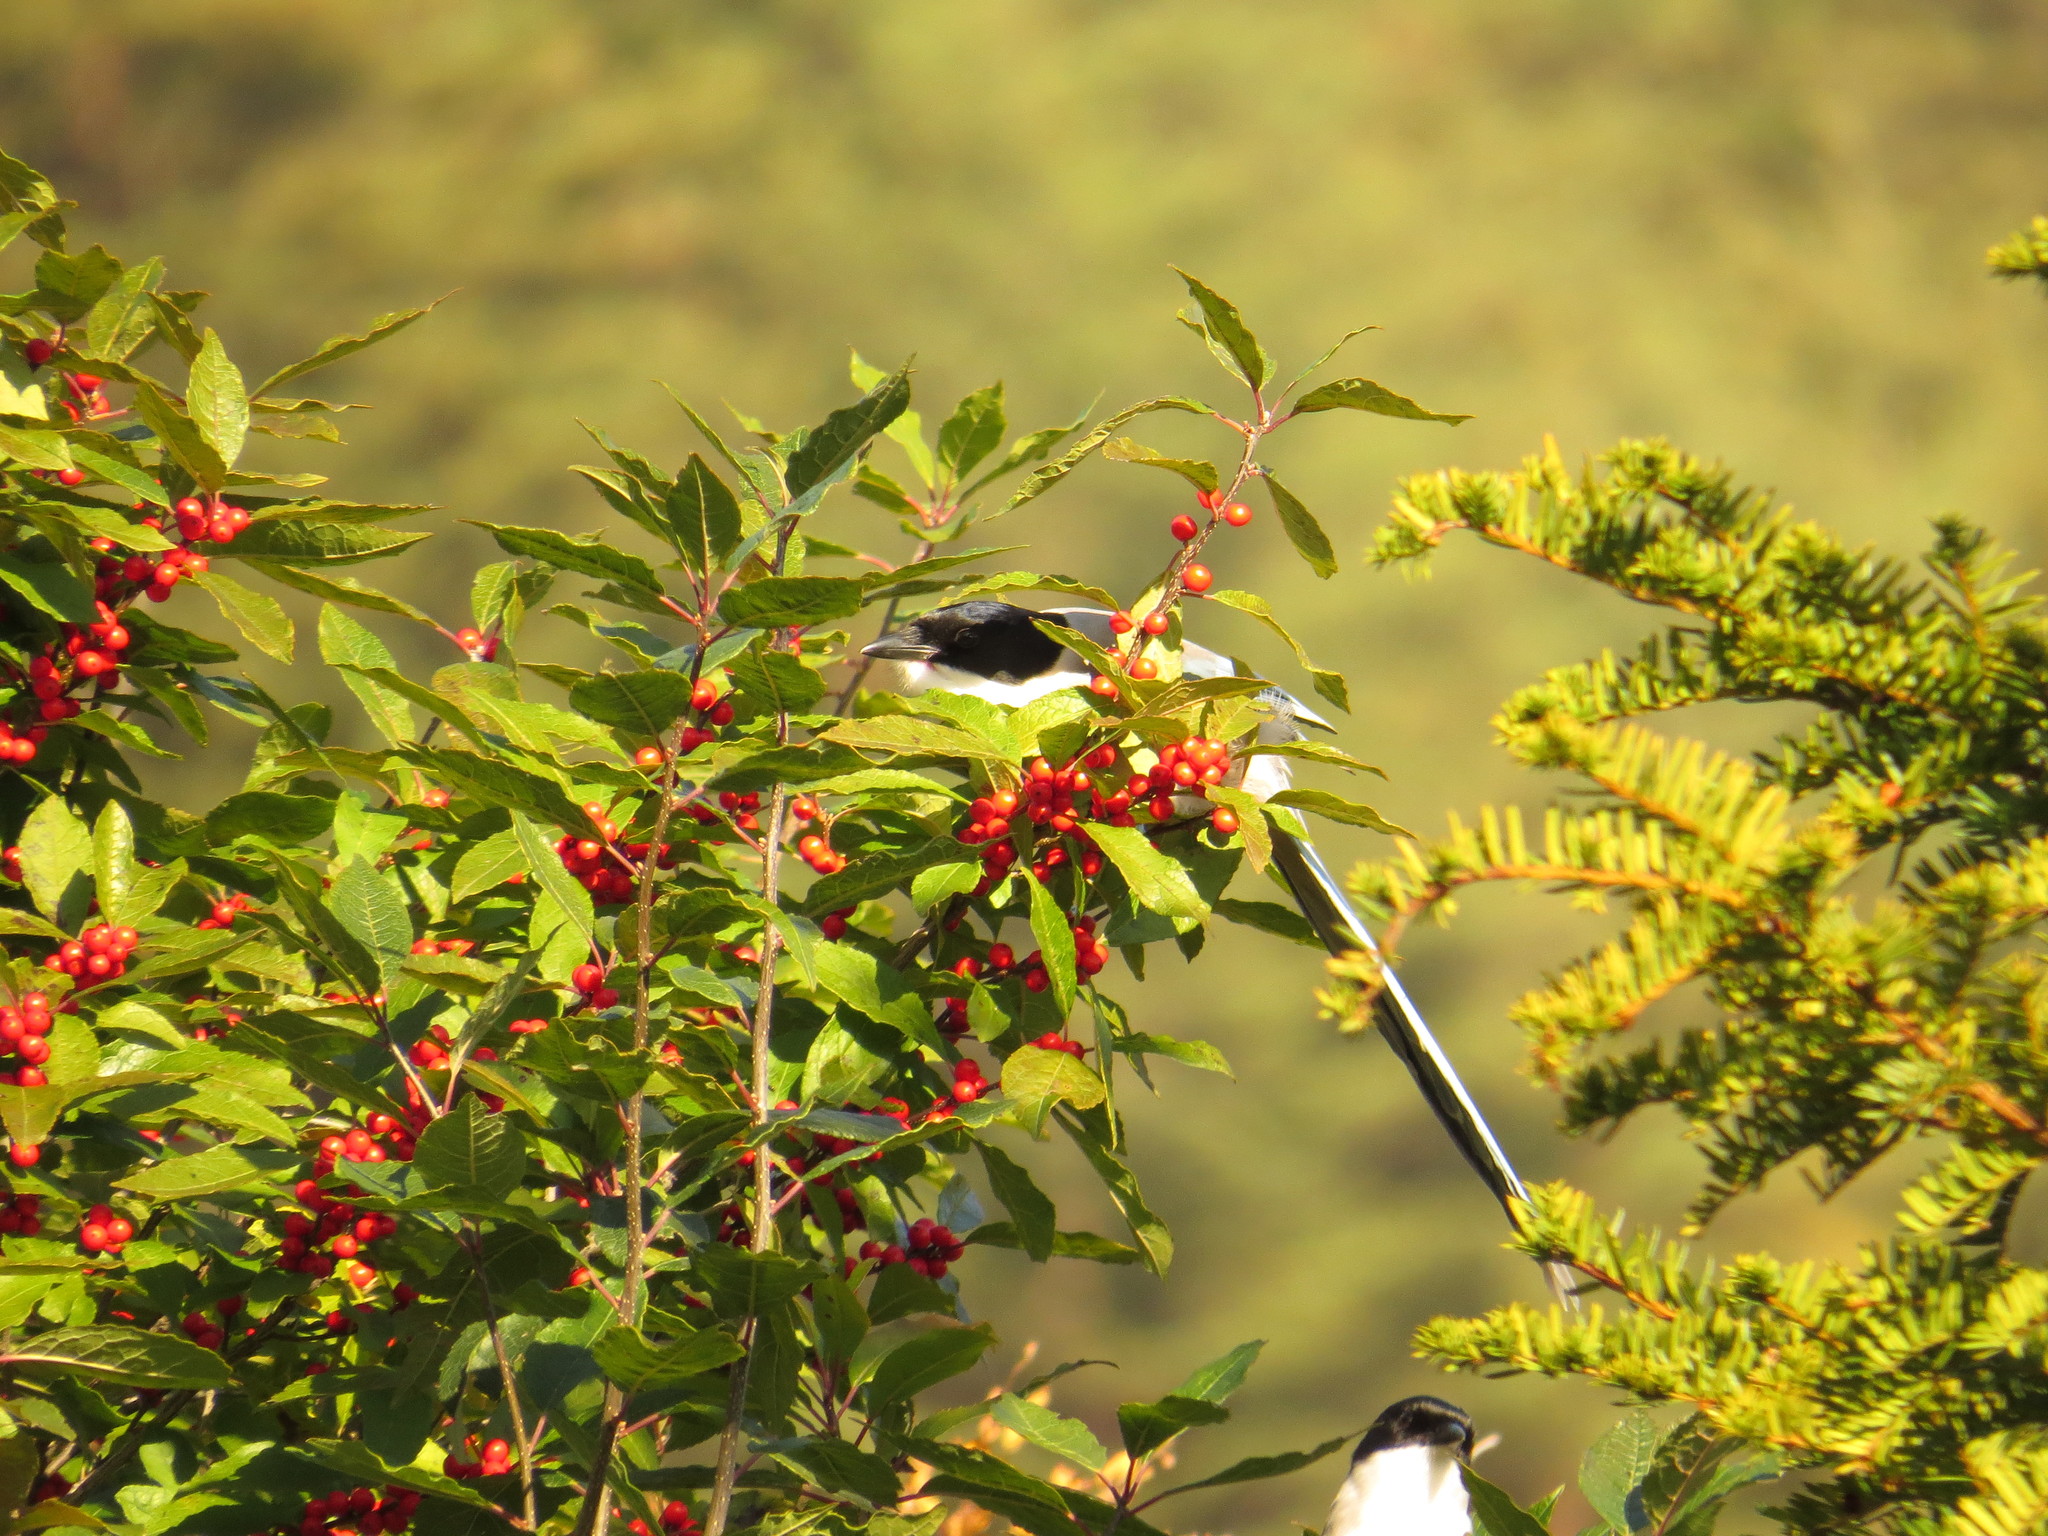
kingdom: Animalia
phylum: Chordata
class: Aves
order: Passeriformes
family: Corvidae
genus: Cyanopica
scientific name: Cyanopica cyanus
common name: Azure-winged magpie
